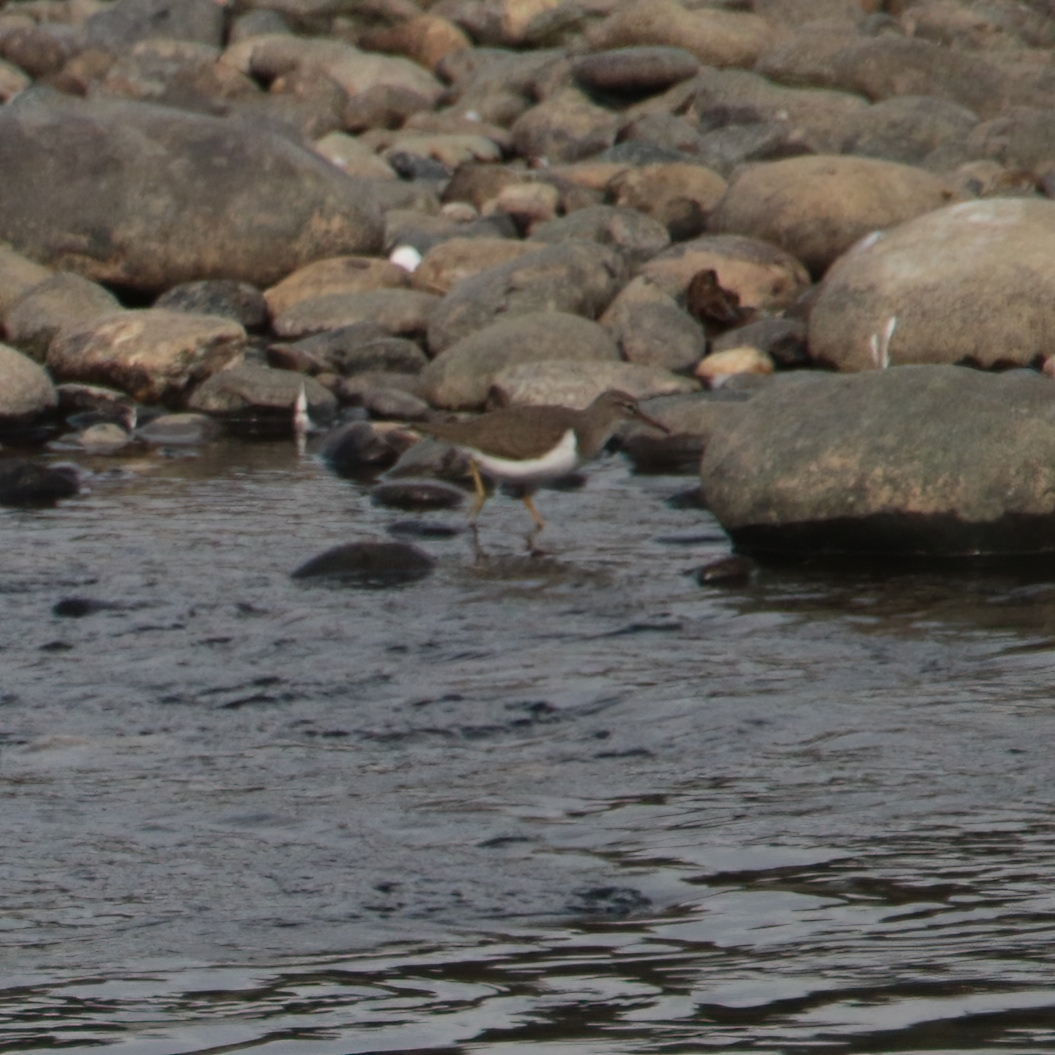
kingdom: Animalia
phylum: Chordata
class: Aves
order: Charadriiformes
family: Scolopacidae
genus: Actitis
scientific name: Actitis macularius
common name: Spotted sandpiper
